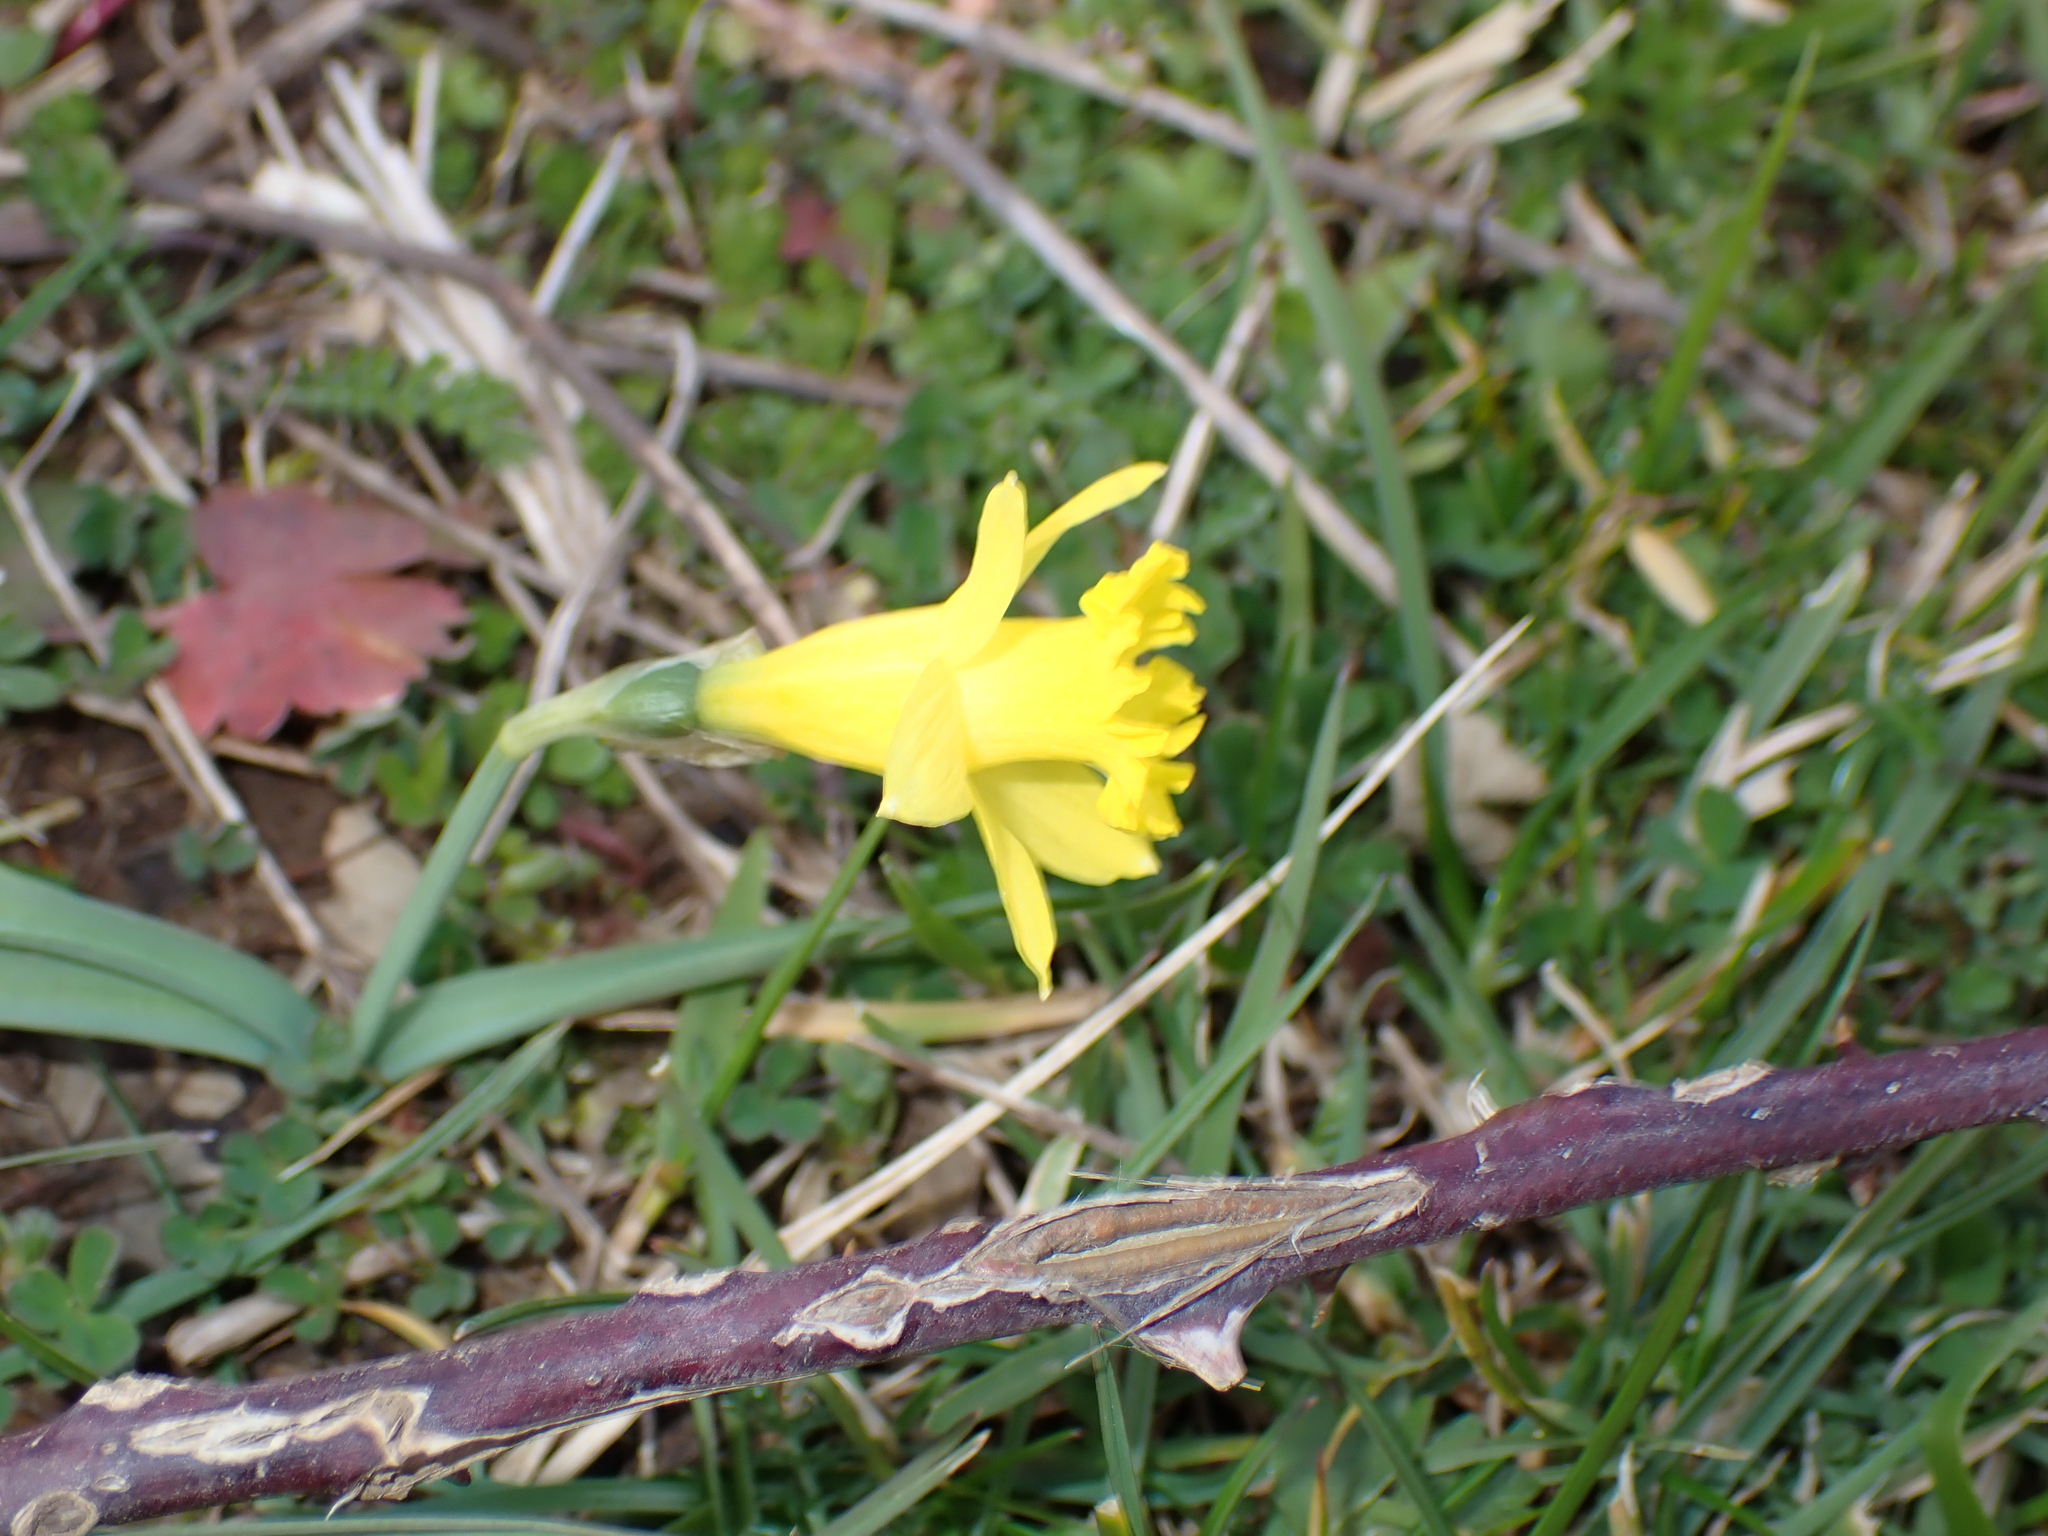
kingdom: Plantae
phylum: Tracheophyta
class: Liliopsida
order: Asparagales
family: Amaryllidaceae
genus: Narcissus
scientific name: Narcissus minor
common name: Lesser daffodil
